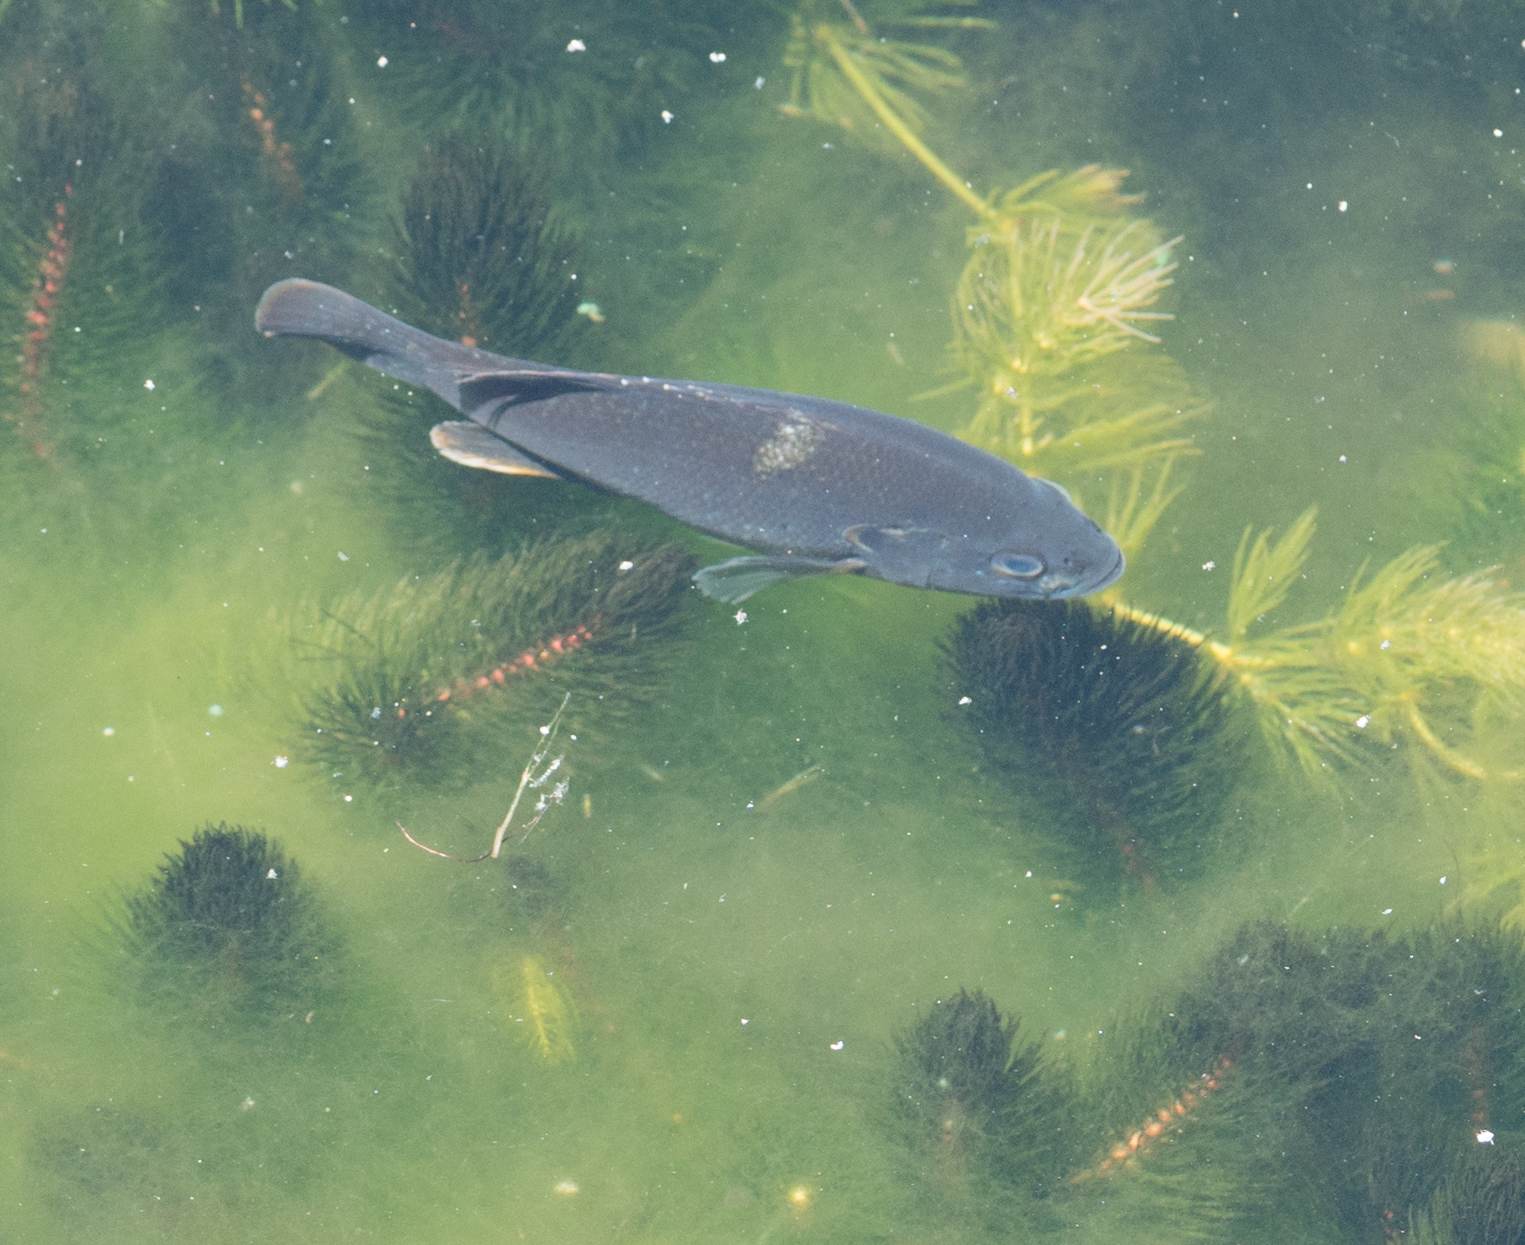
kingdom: Animalia
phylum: Chordata
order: Perciformes
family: Centrarchidae
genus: Lepomis
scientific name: Lepomis cyanellus
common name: Green sunfish
